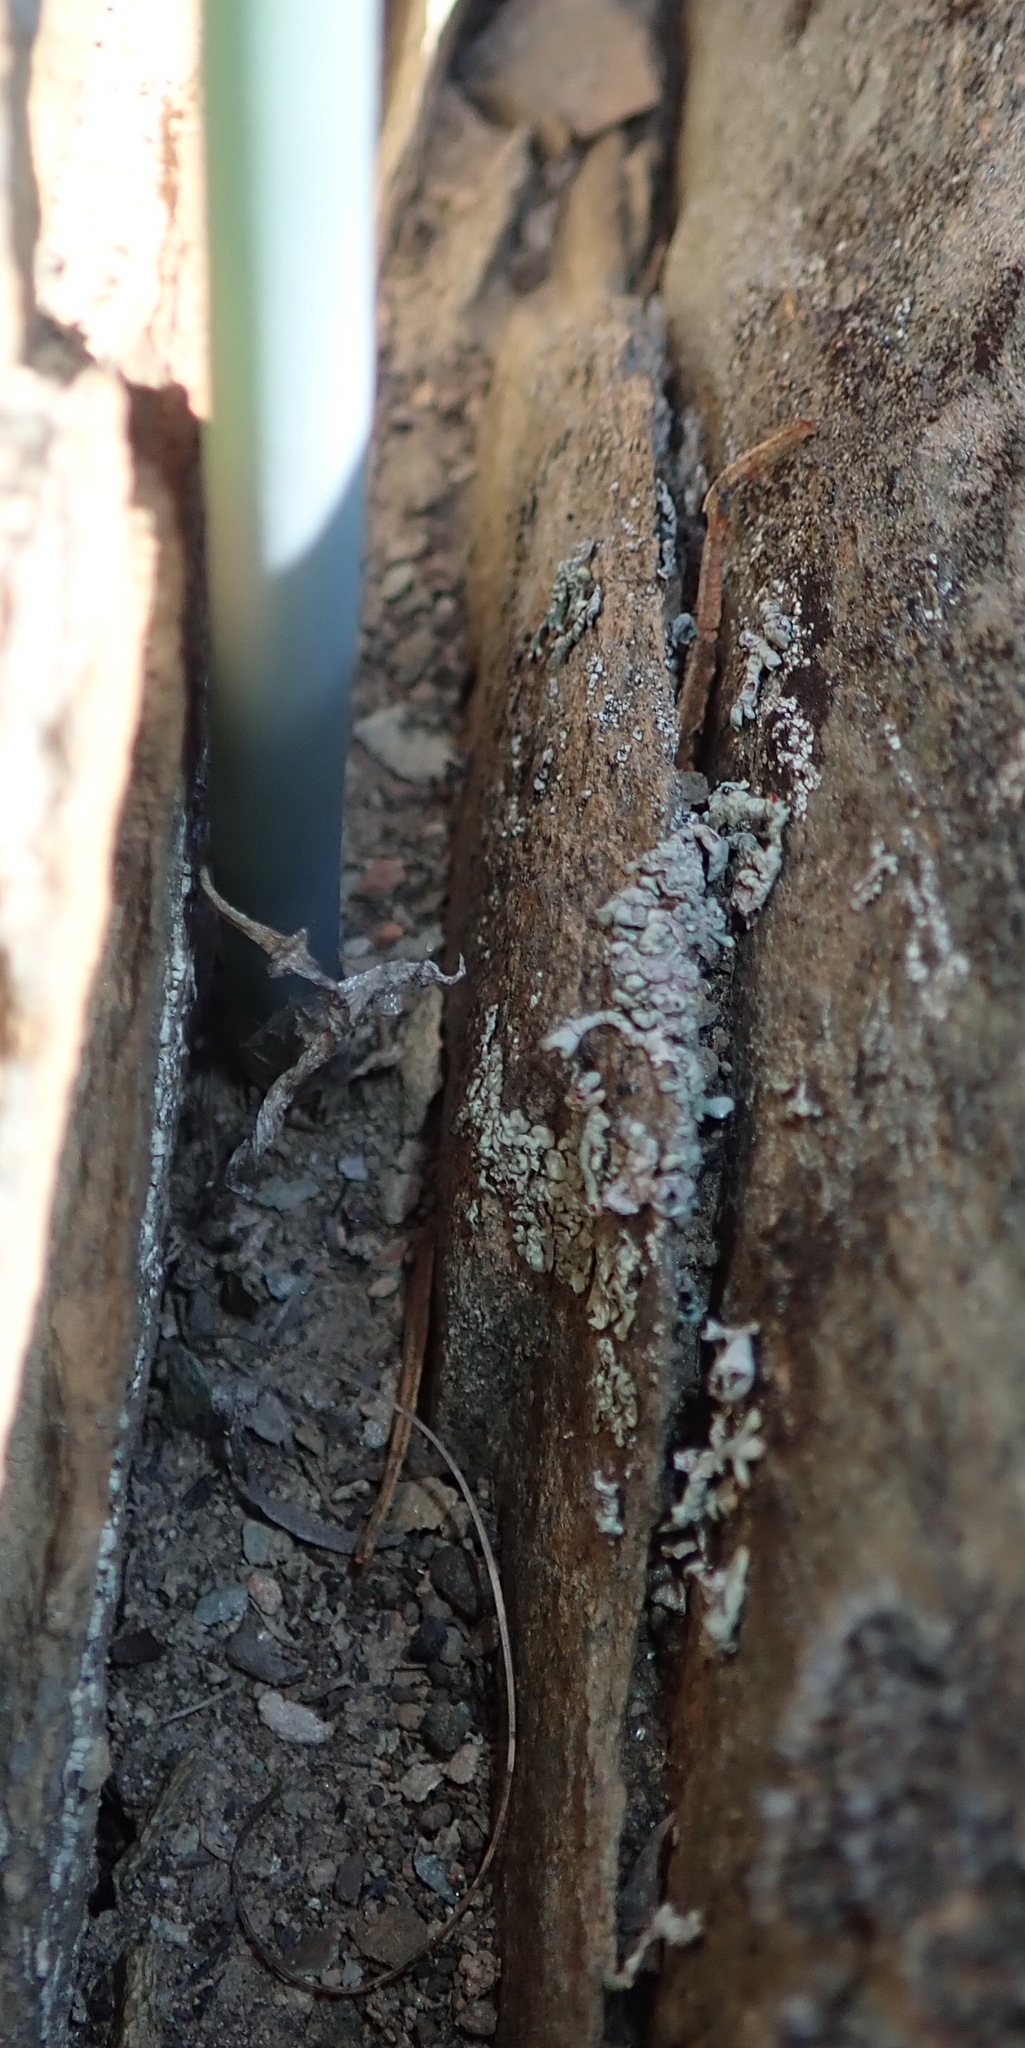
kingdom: Plantae
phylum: Tracheophyta
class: Liliopsida
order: Asparagales
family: Asparagaceae
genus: Drimia
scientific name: Drimia anomala
